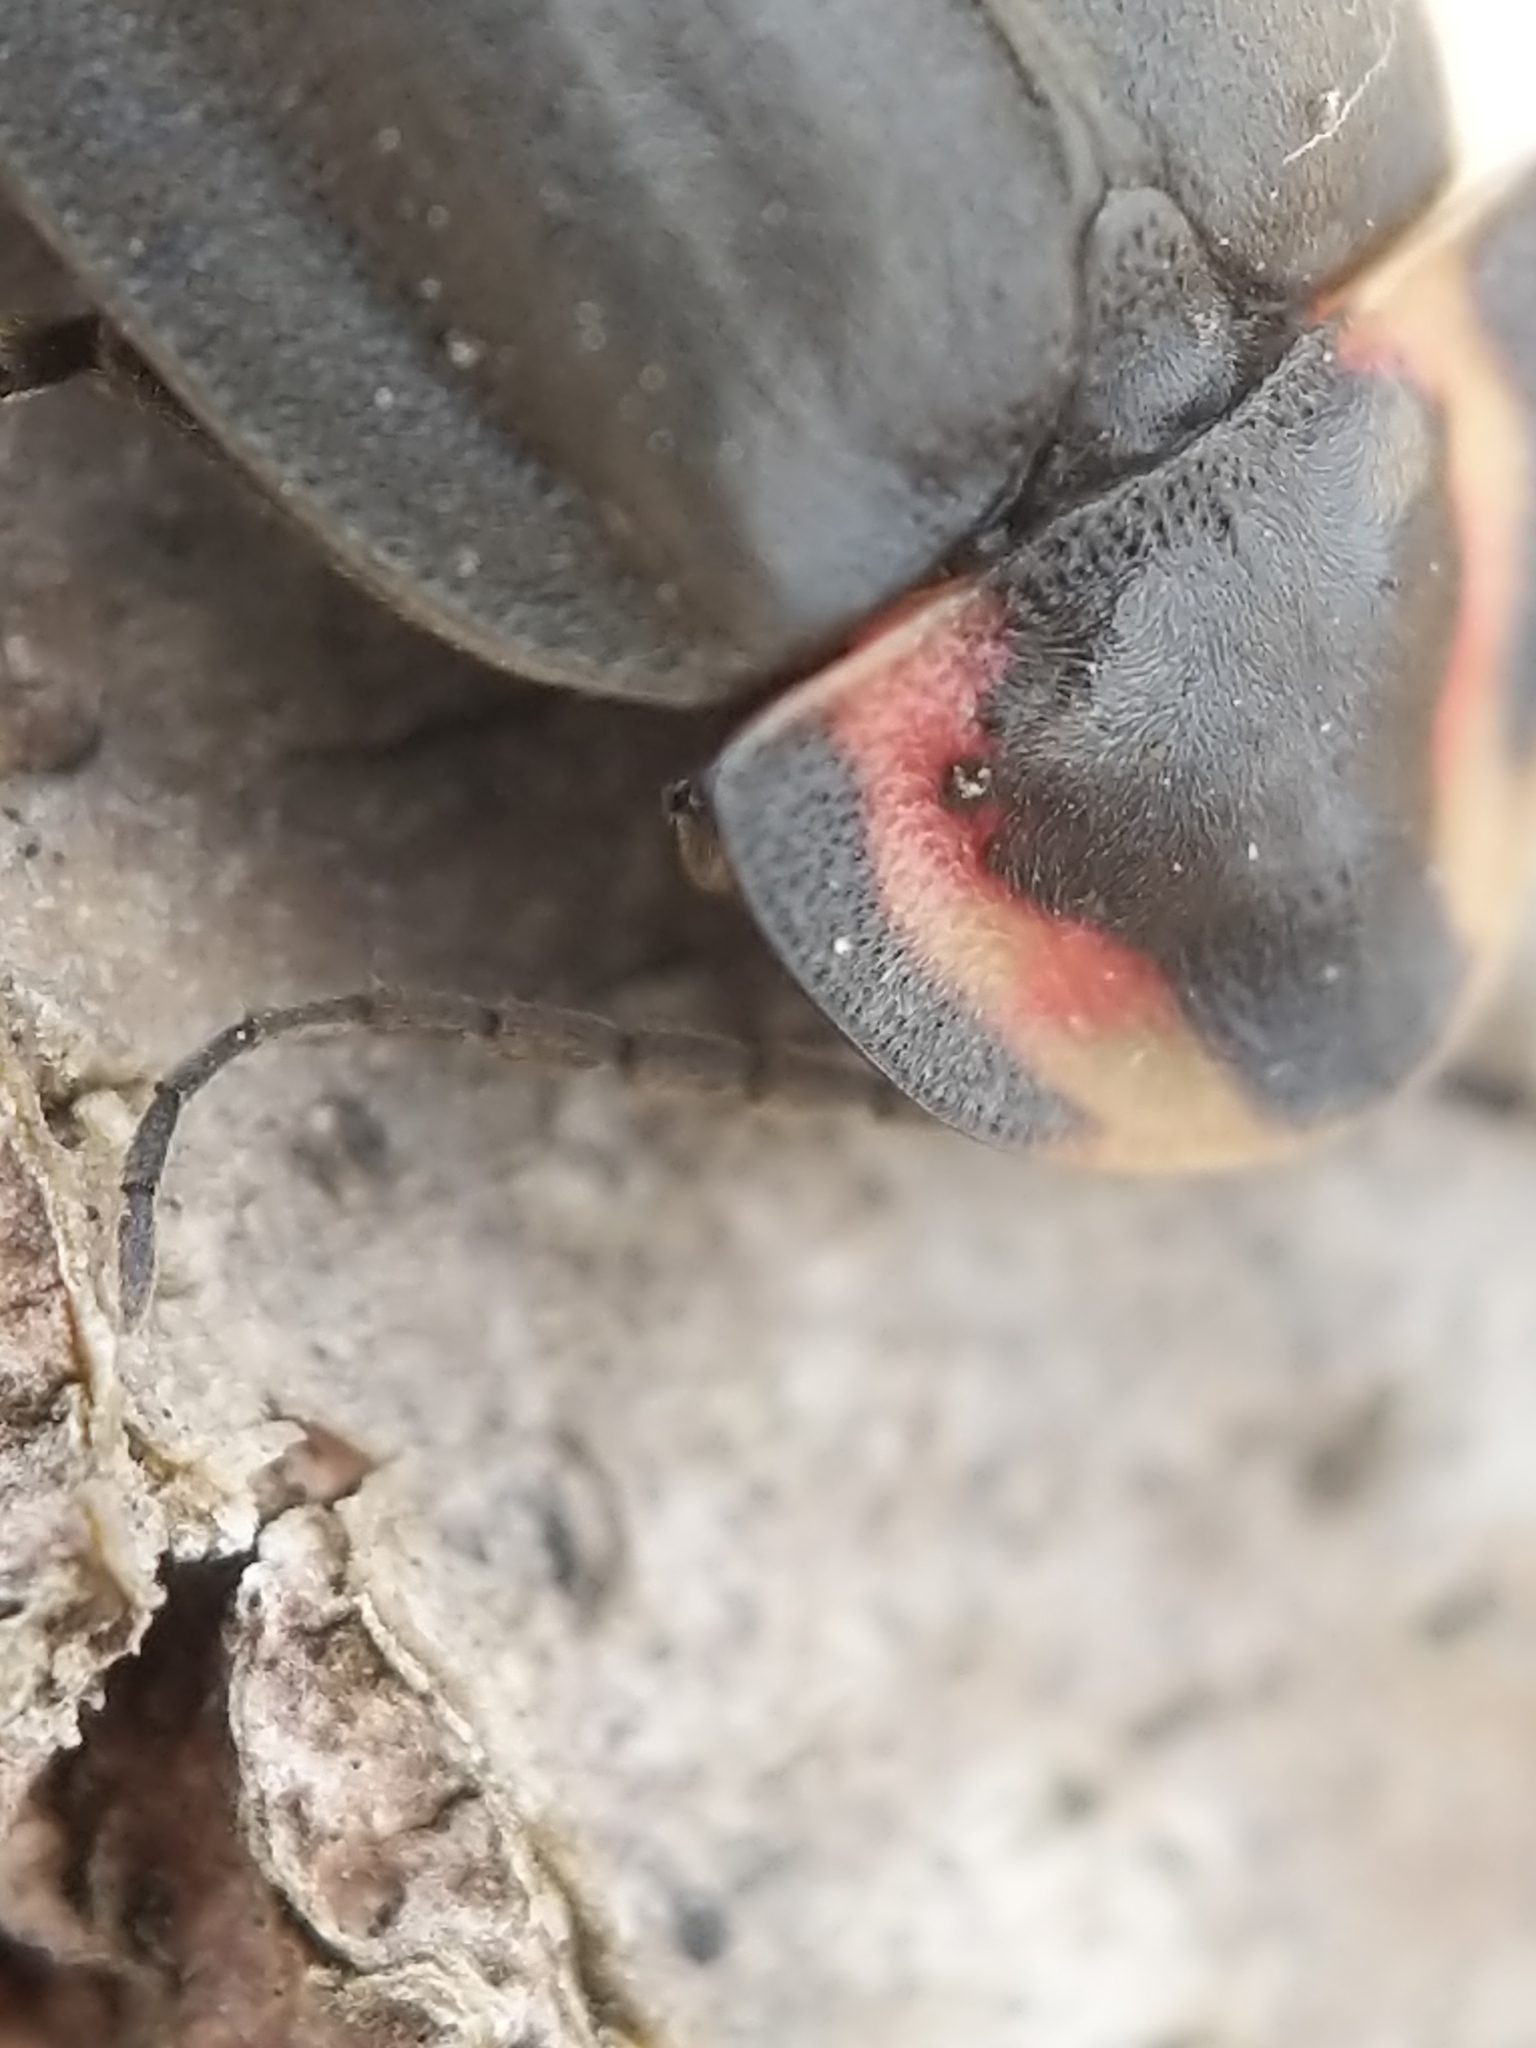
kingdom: Animalia
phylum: Arthropoda
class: Insecta
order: Coleoptera
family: Lampyridae
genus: Photinus
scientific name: Photinus corrusca
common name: Winter firefly
